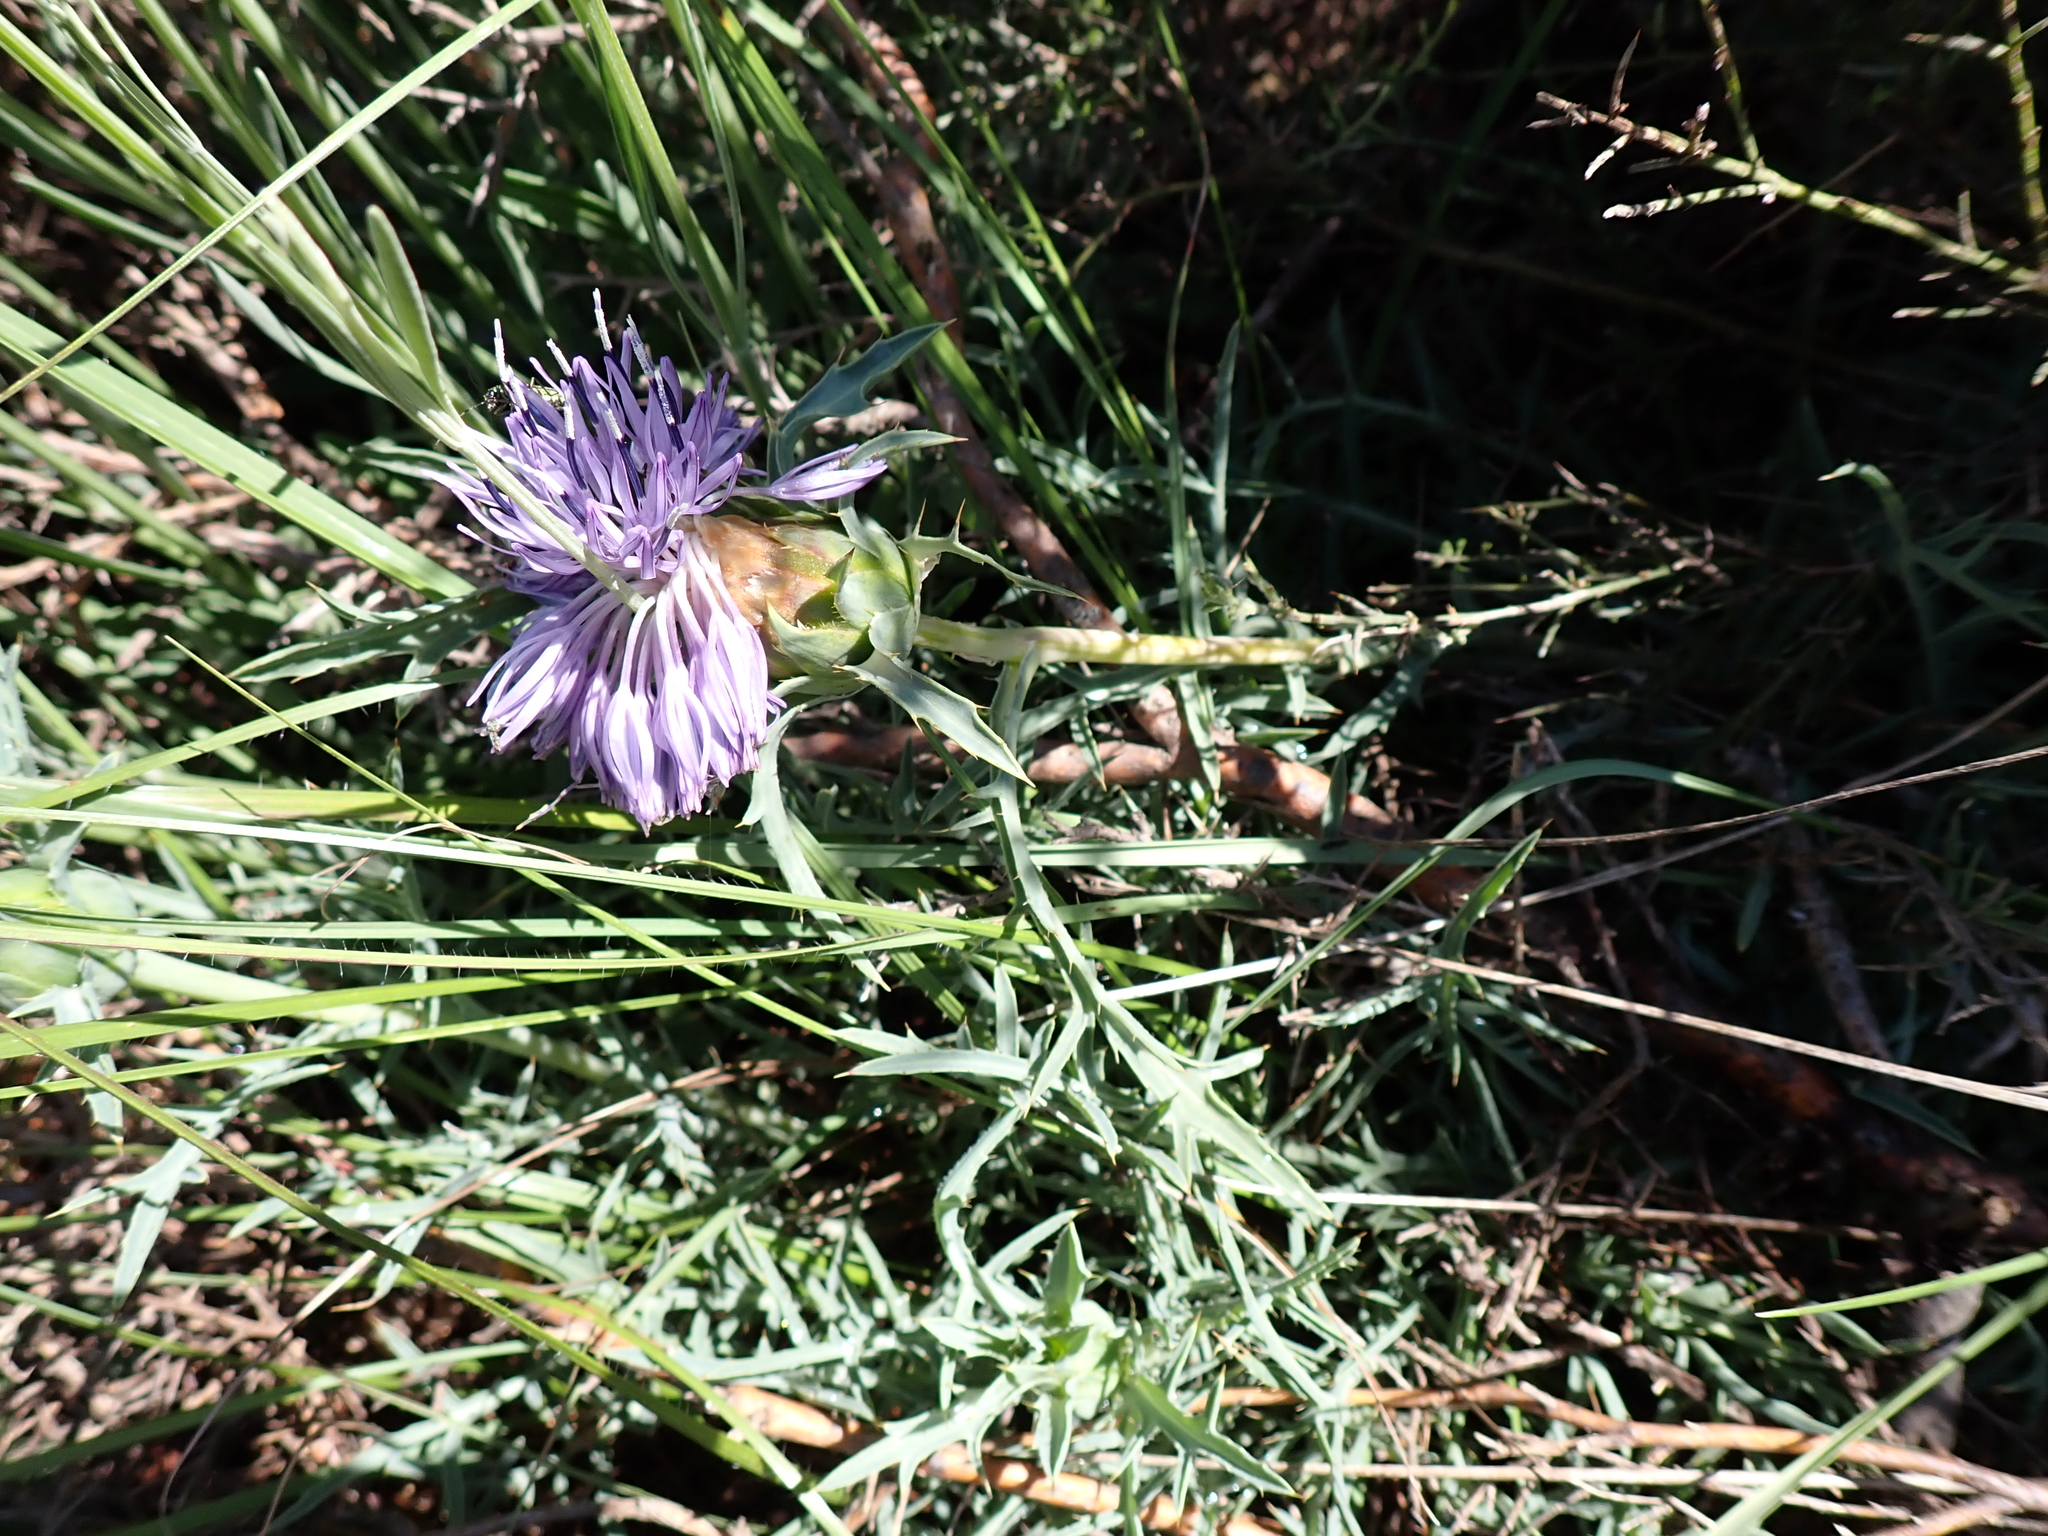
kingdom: Plantae
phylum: Tracheophyta
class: Magnoliopsida
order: Asterales
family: Asteraceae
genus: Carduncellus
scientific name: Carduncellus monspelliensium
